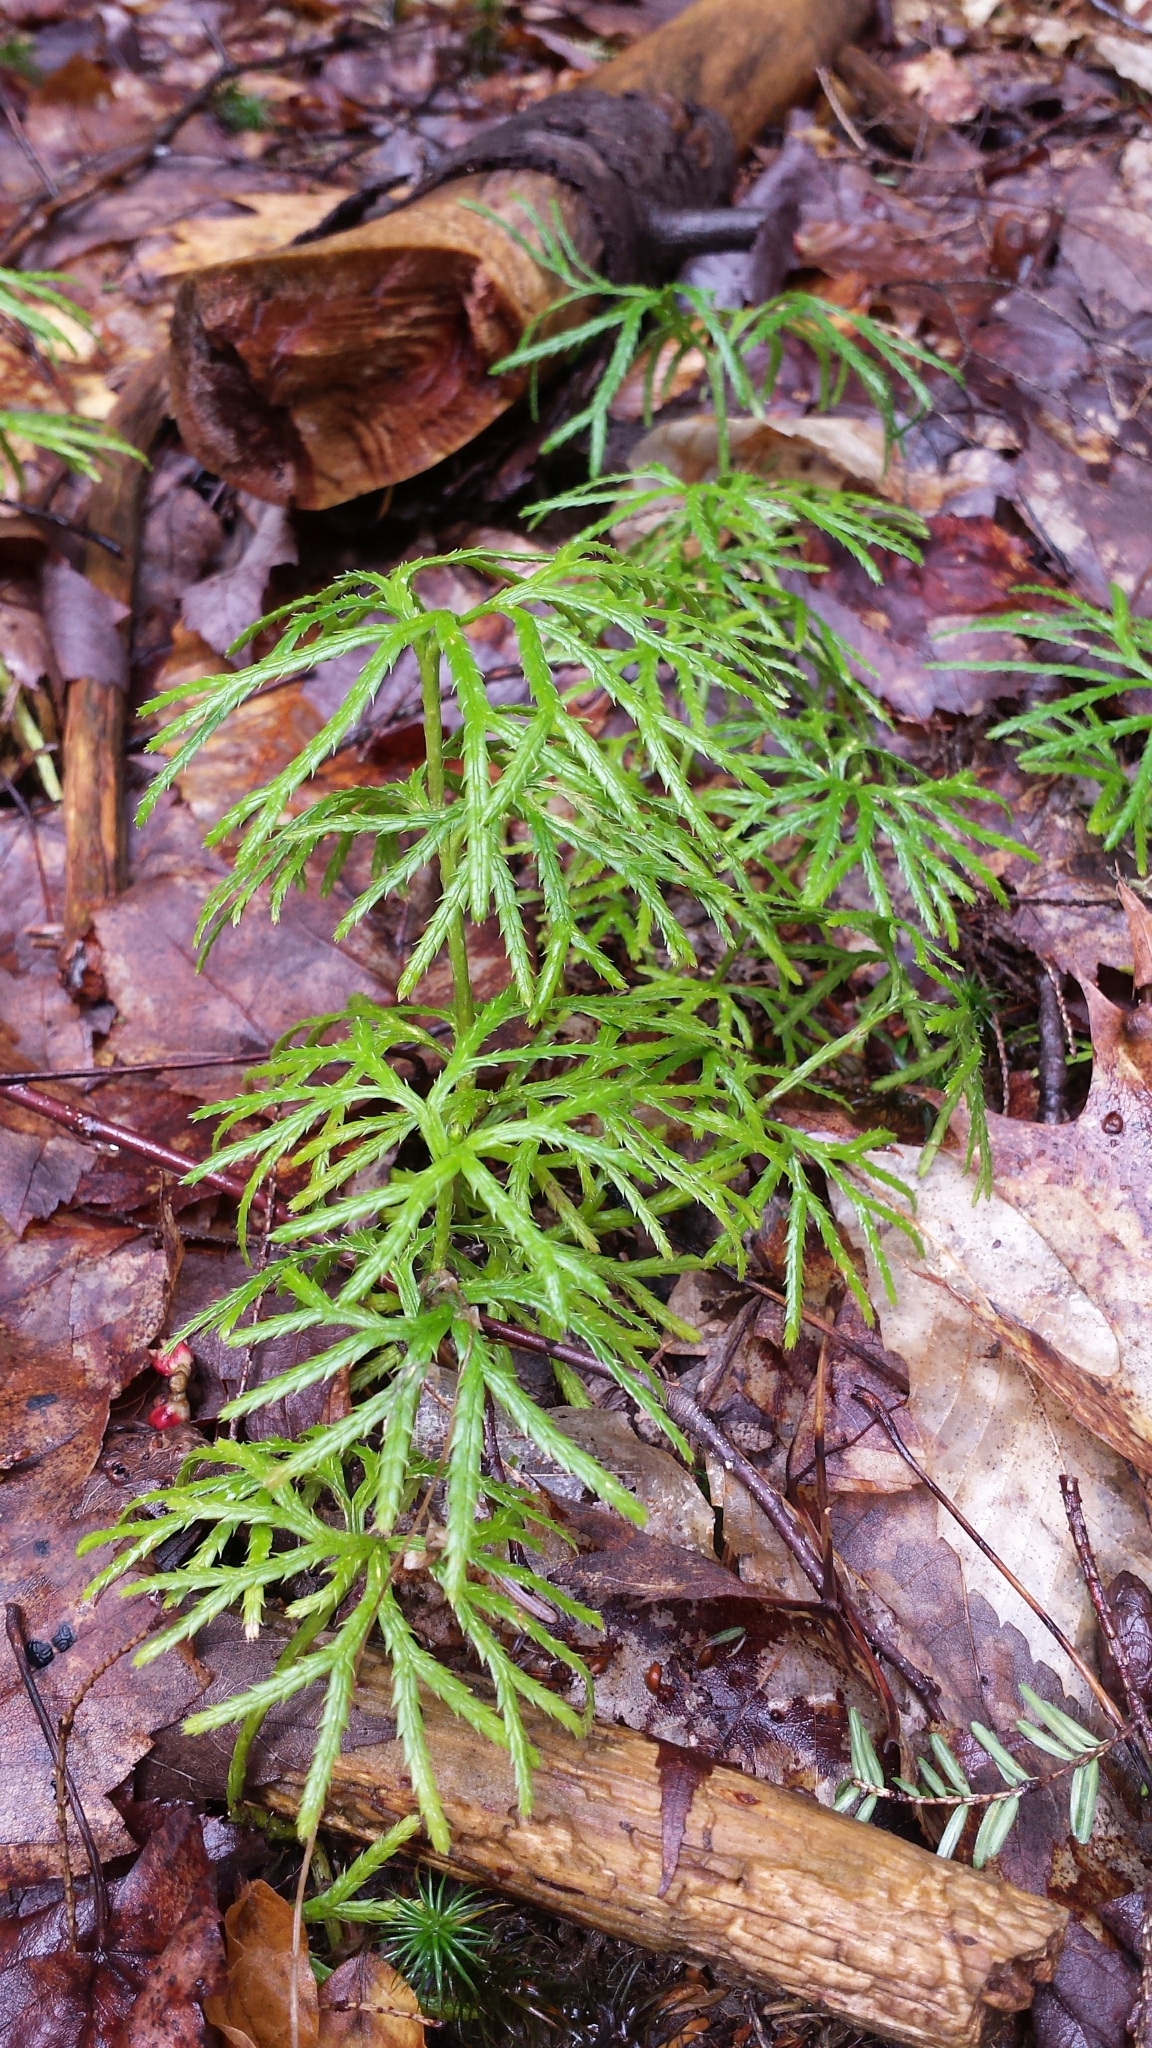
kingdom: Plantae
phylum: Tracheophyta
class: Lycopodiopsida
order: Lycopodiales
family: Lycopodiaceae
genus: Diphasiastrum
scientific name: Diphasiastrum digitatum
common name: Southern running-pine
